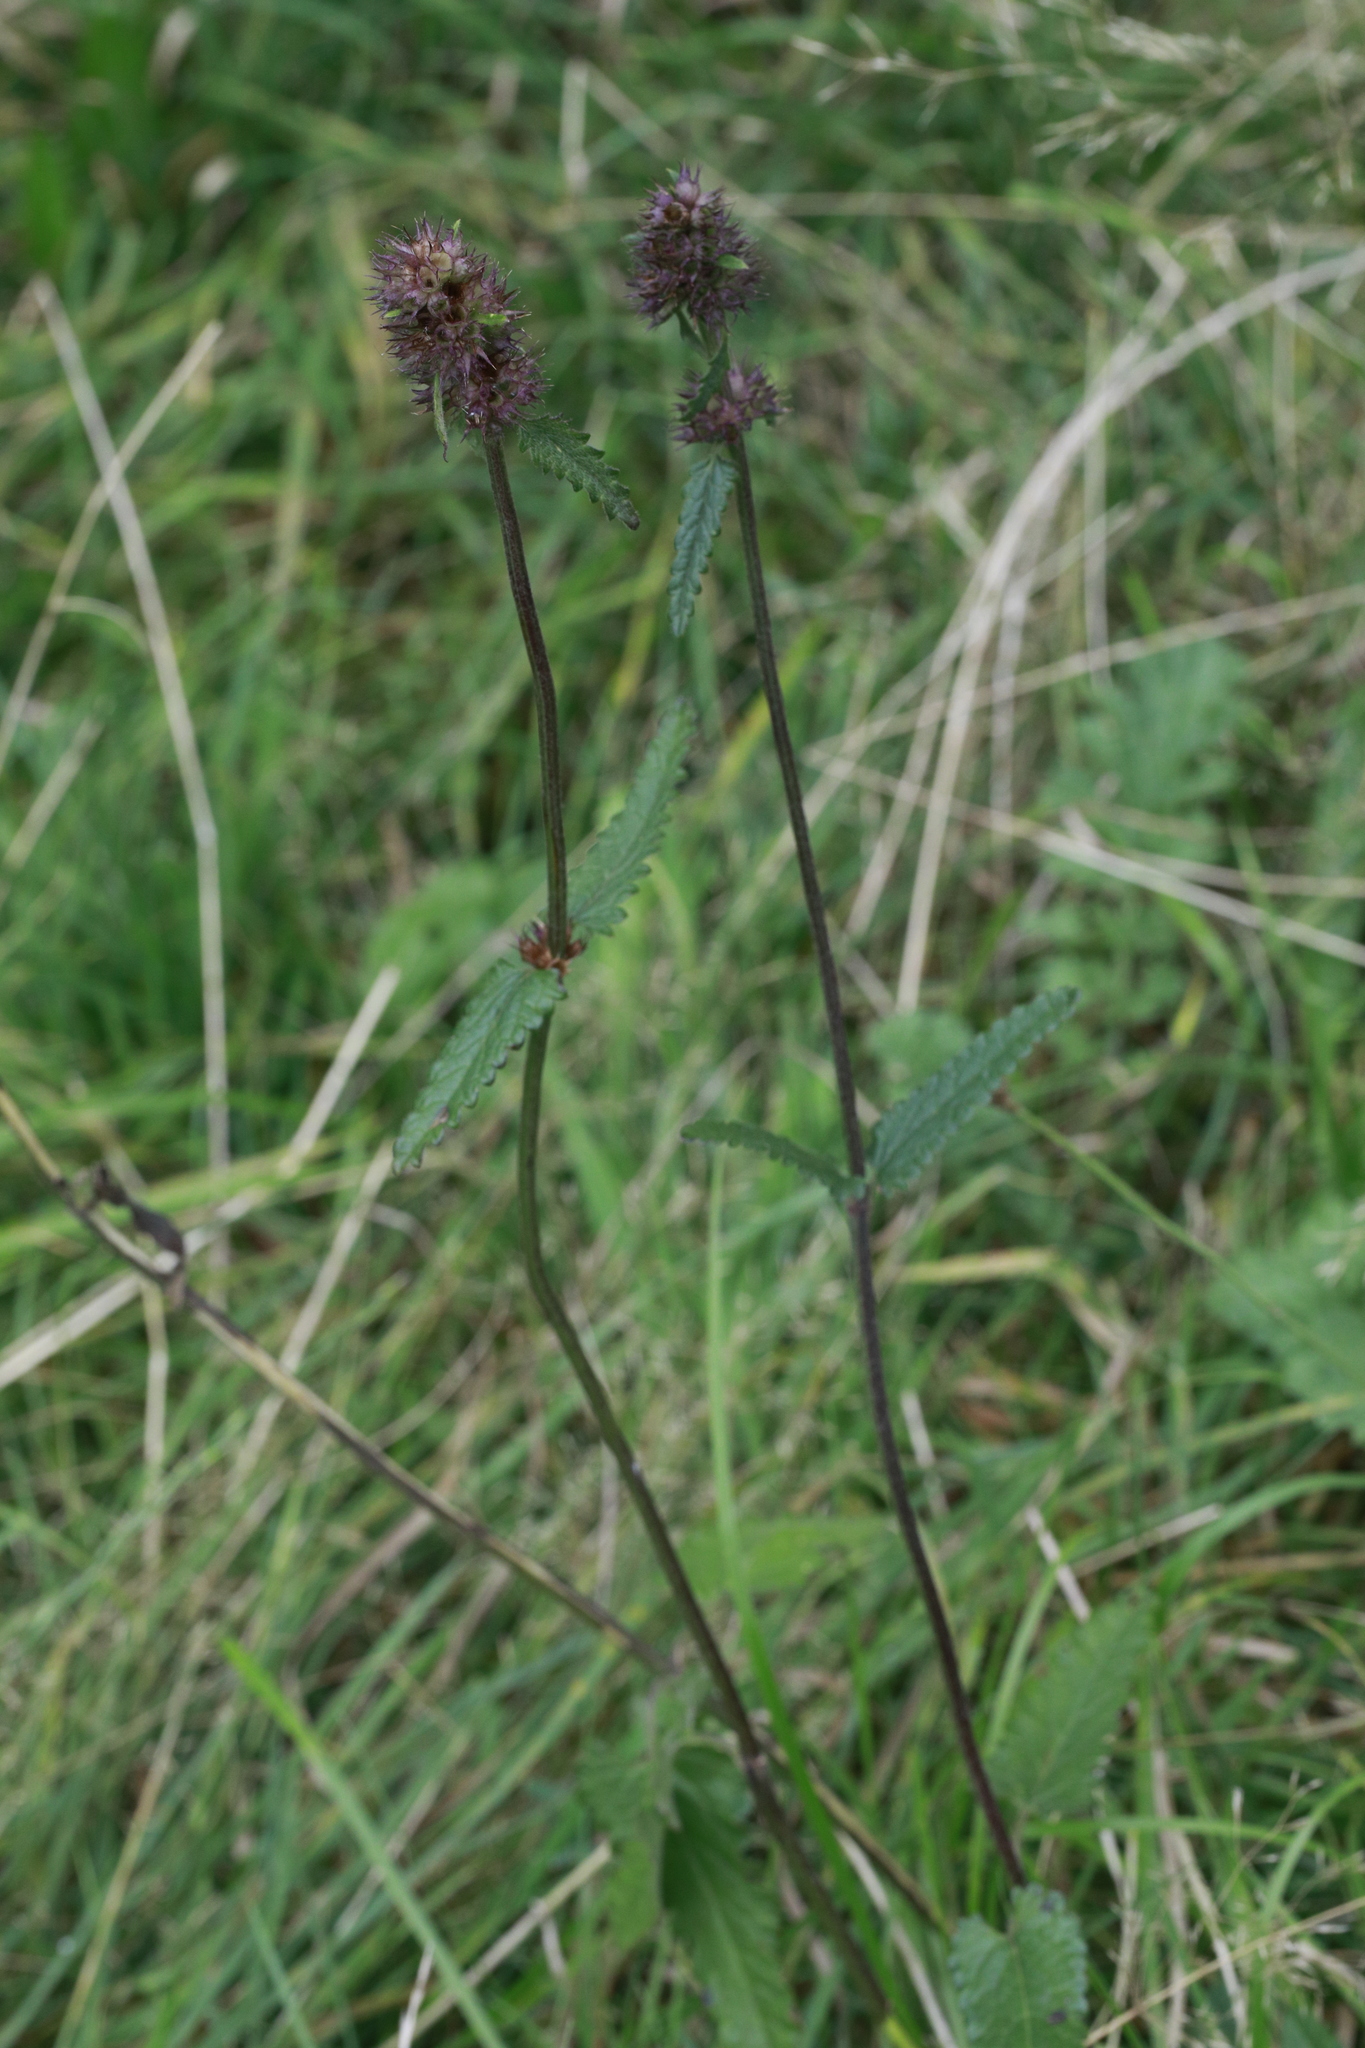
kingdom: Plantae
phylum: Tracheophyta
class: Magnoliopsida
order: Lamiales
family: Lamiaceae
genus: Betonica
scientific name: Betonica officinalis
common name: Bishop's-wort
